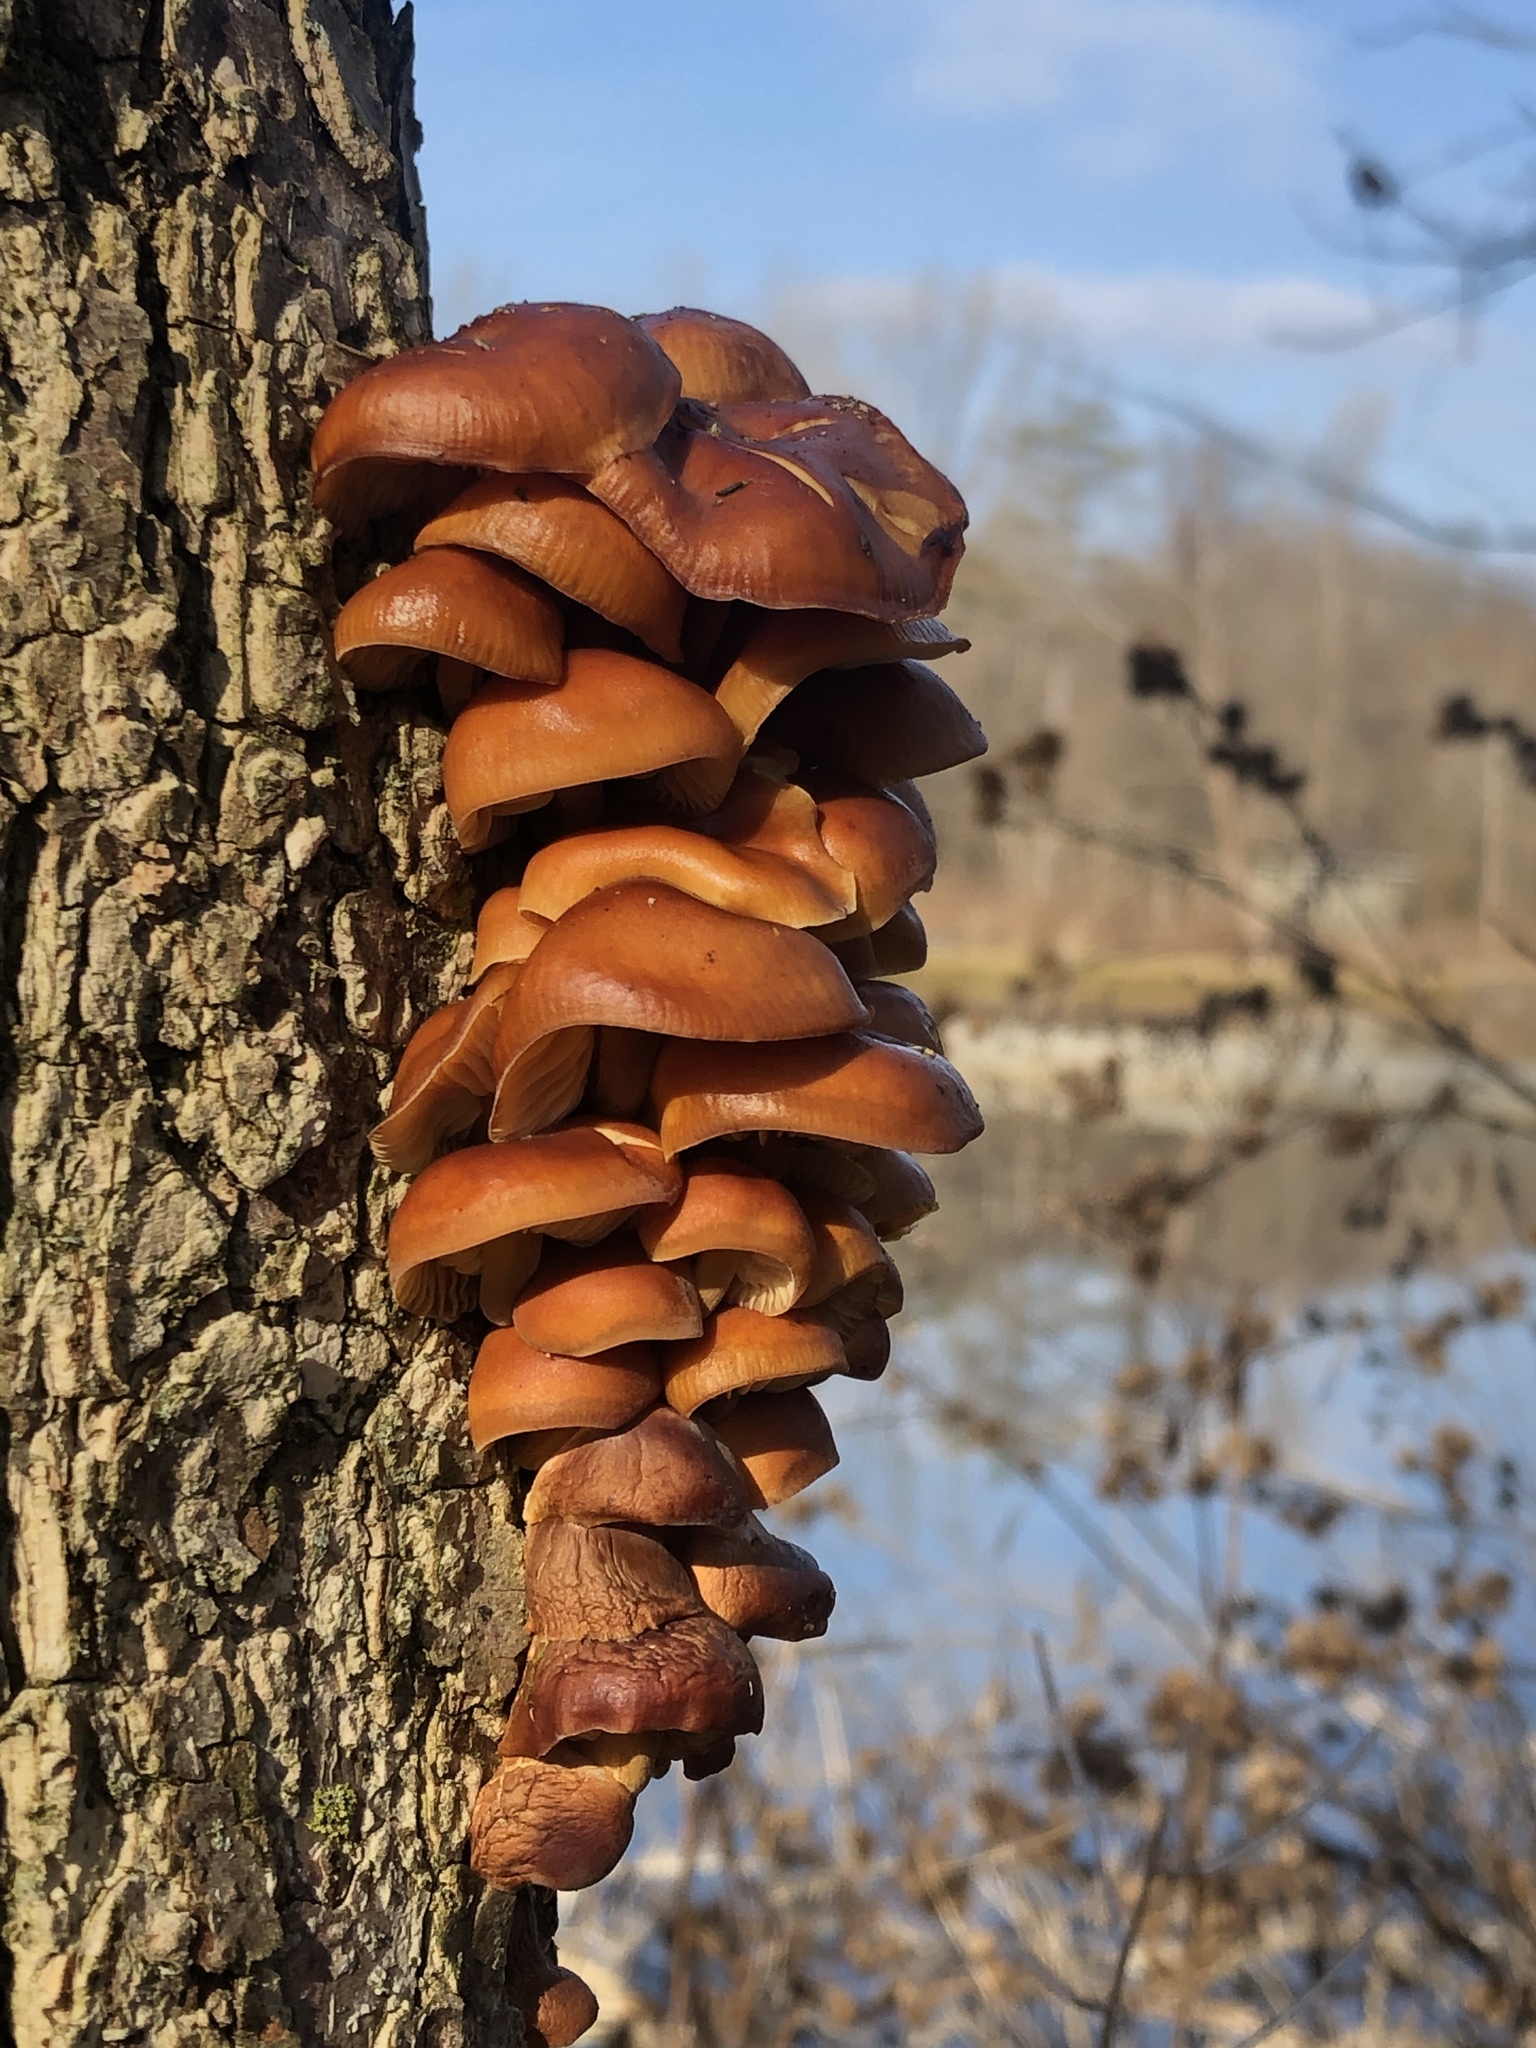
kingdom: Fungi
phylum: Basidiomycota
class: Agaricomycetes
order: Agaricales
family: Physalacriaceae
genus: Flammulina
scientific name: Flammulina velutipes
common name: Velvet shank
